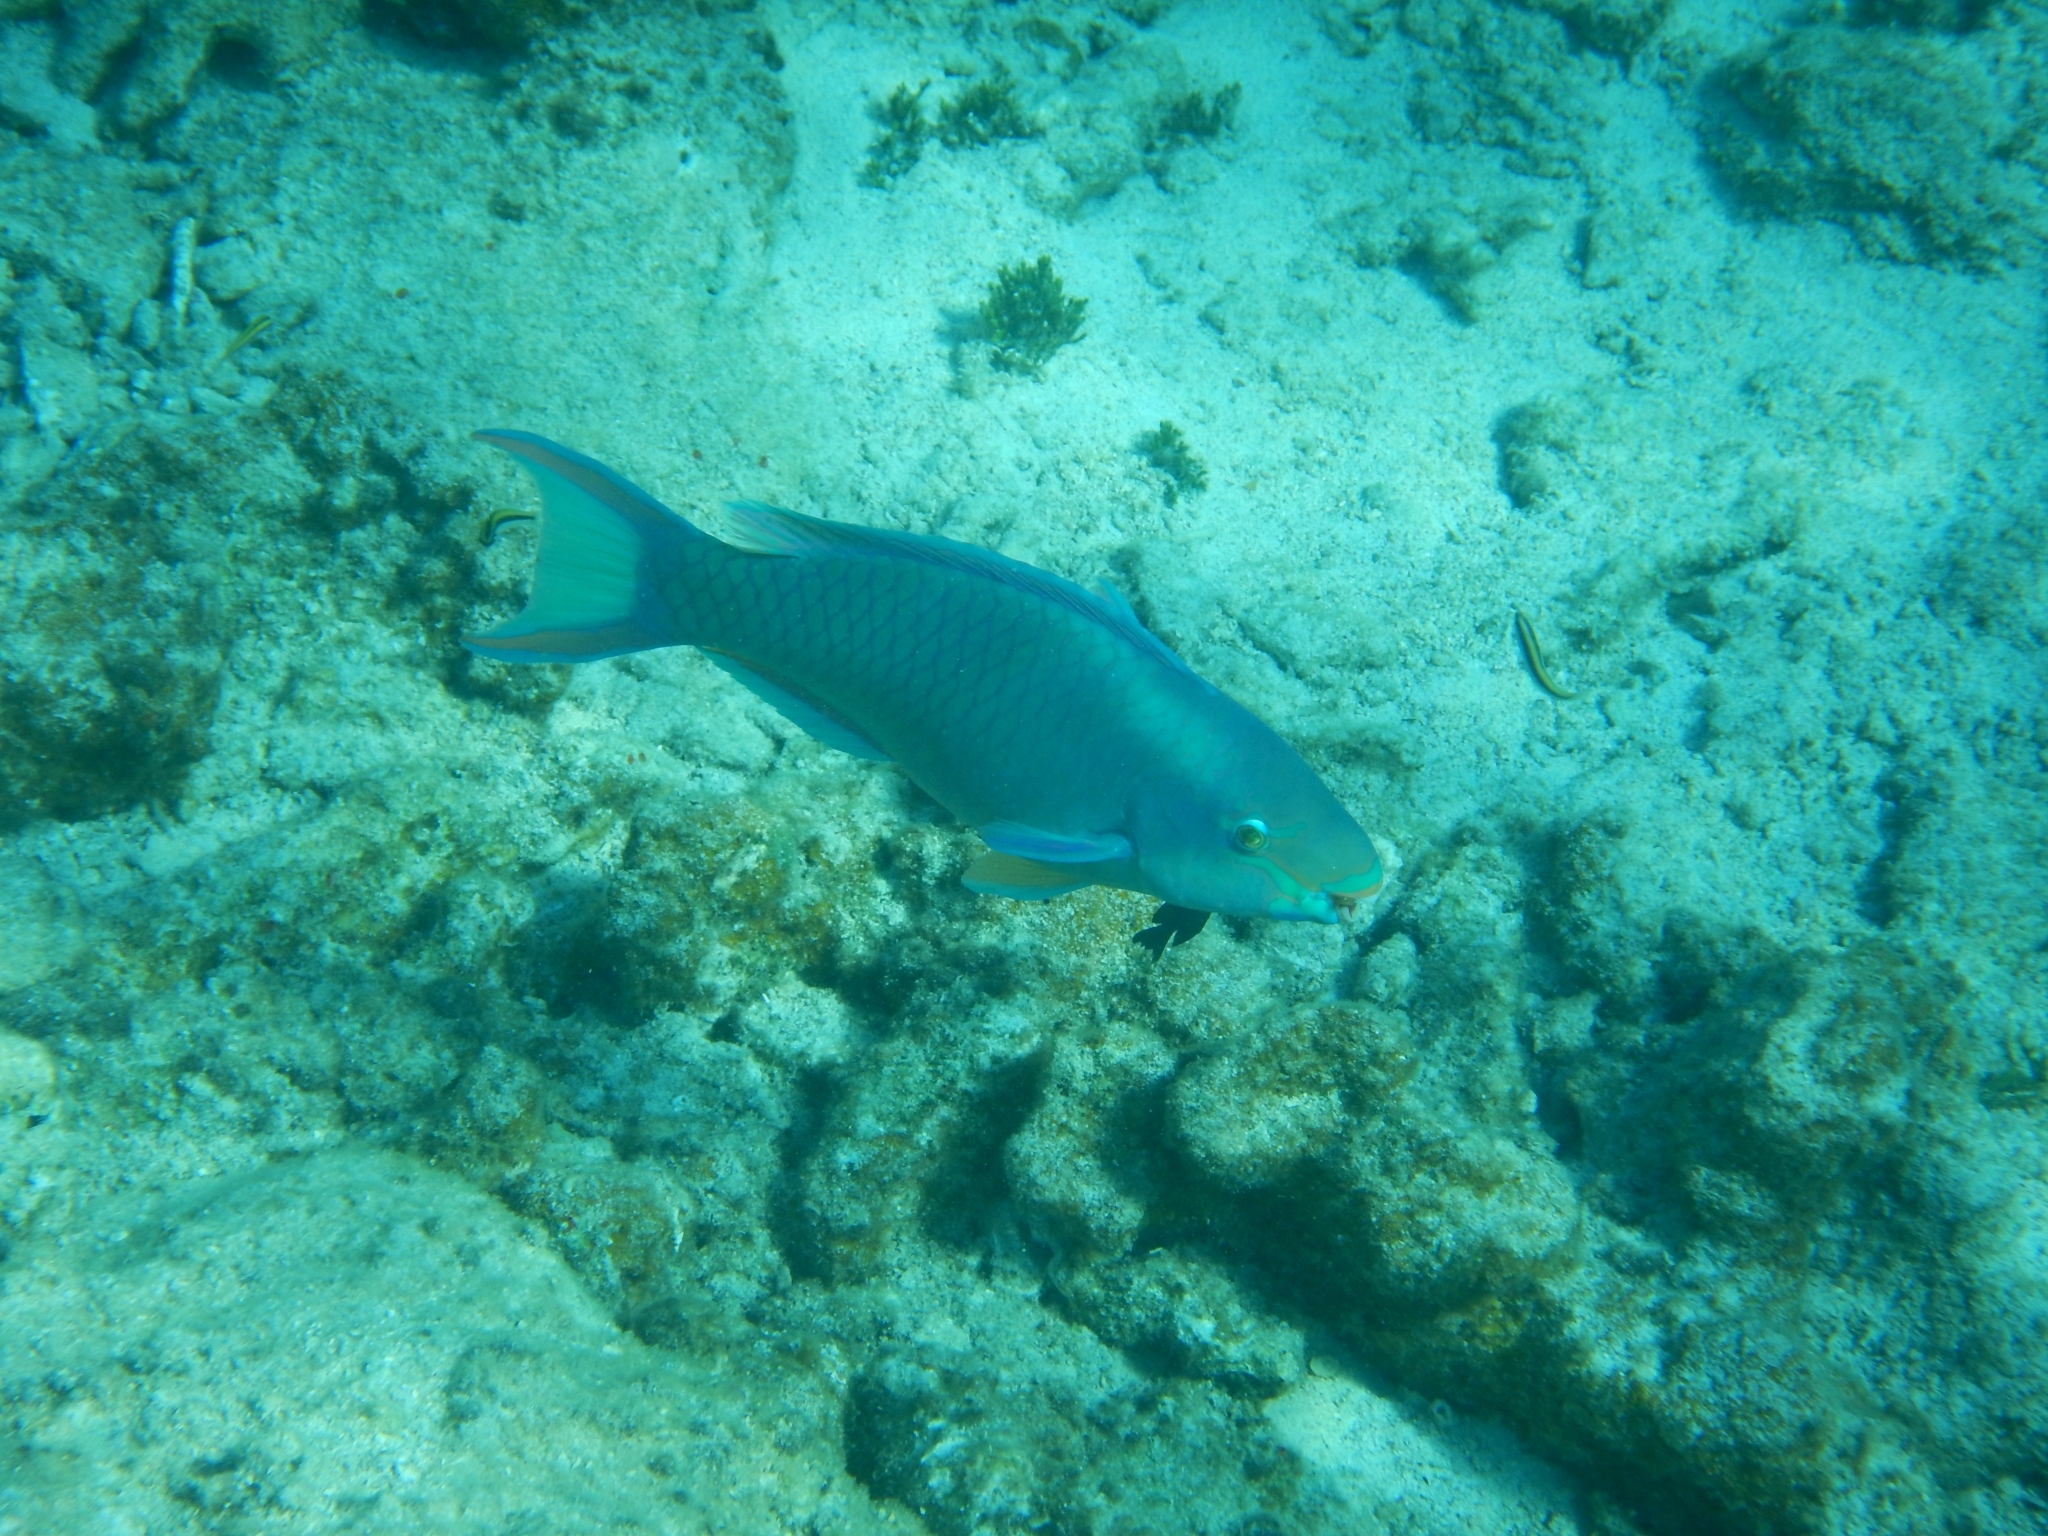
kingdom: Animalia
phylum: Chordata
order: Perciformes
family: Scaridae
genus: Scarus
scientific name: Scarus vetula
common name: Queen parrotfish
